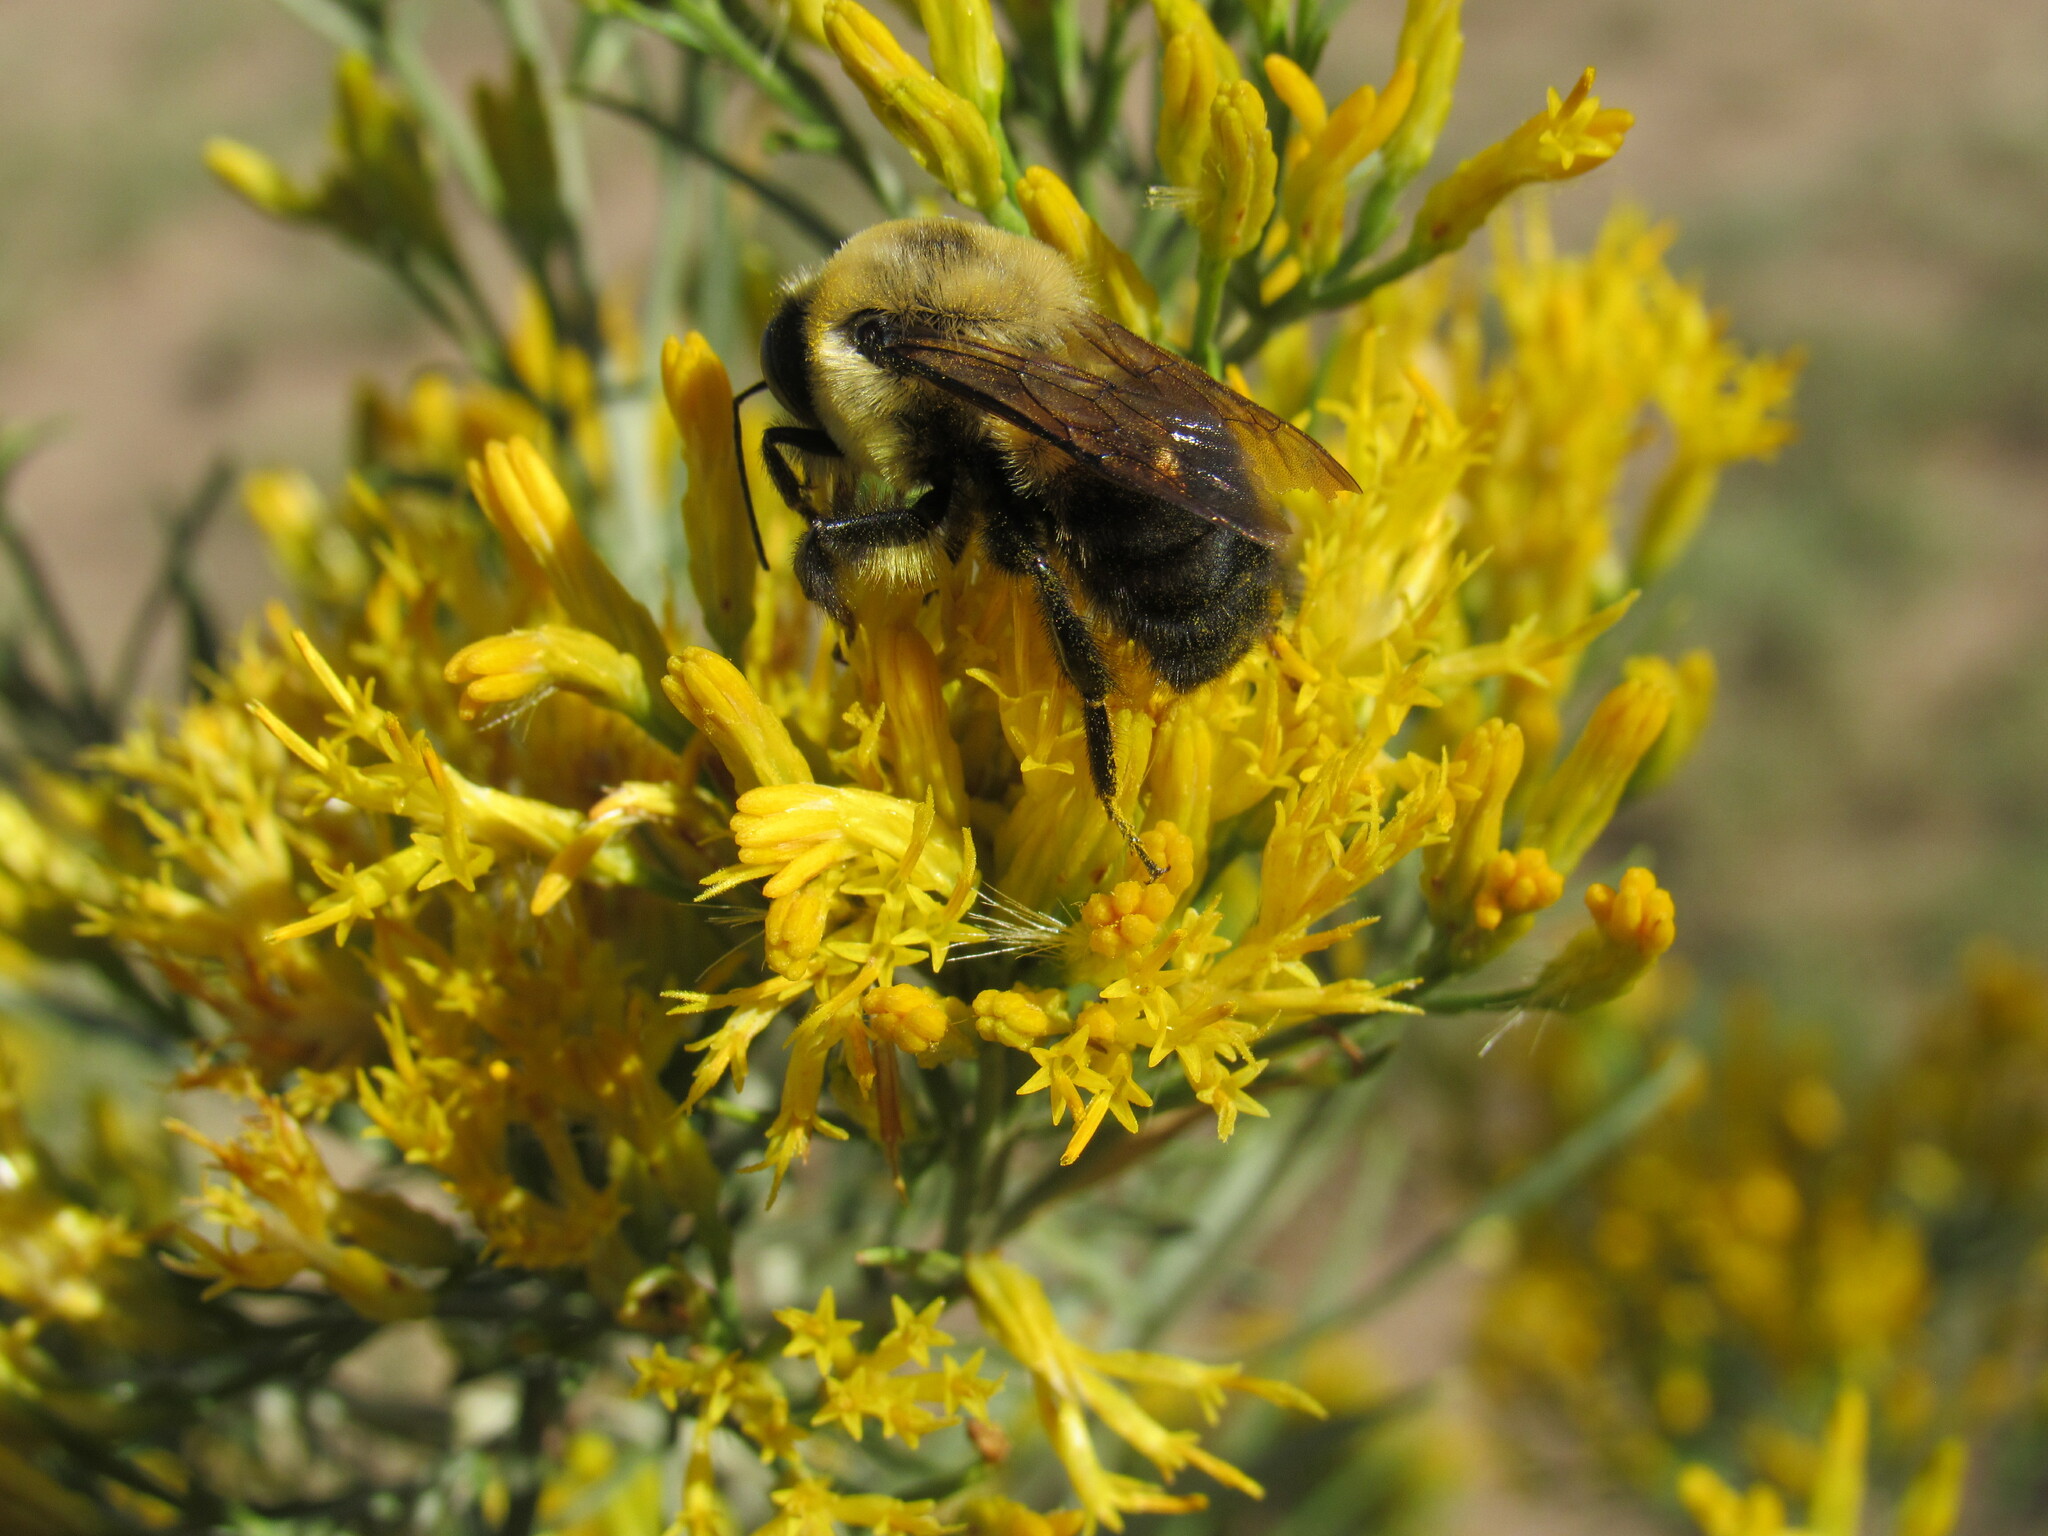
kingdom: Animalia
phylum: Arthropoda
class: Insecta
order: Hymenoptera
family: Apidae
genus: Bombus
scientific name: Bombus griseocollis
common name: Brown-belted bumble bee
